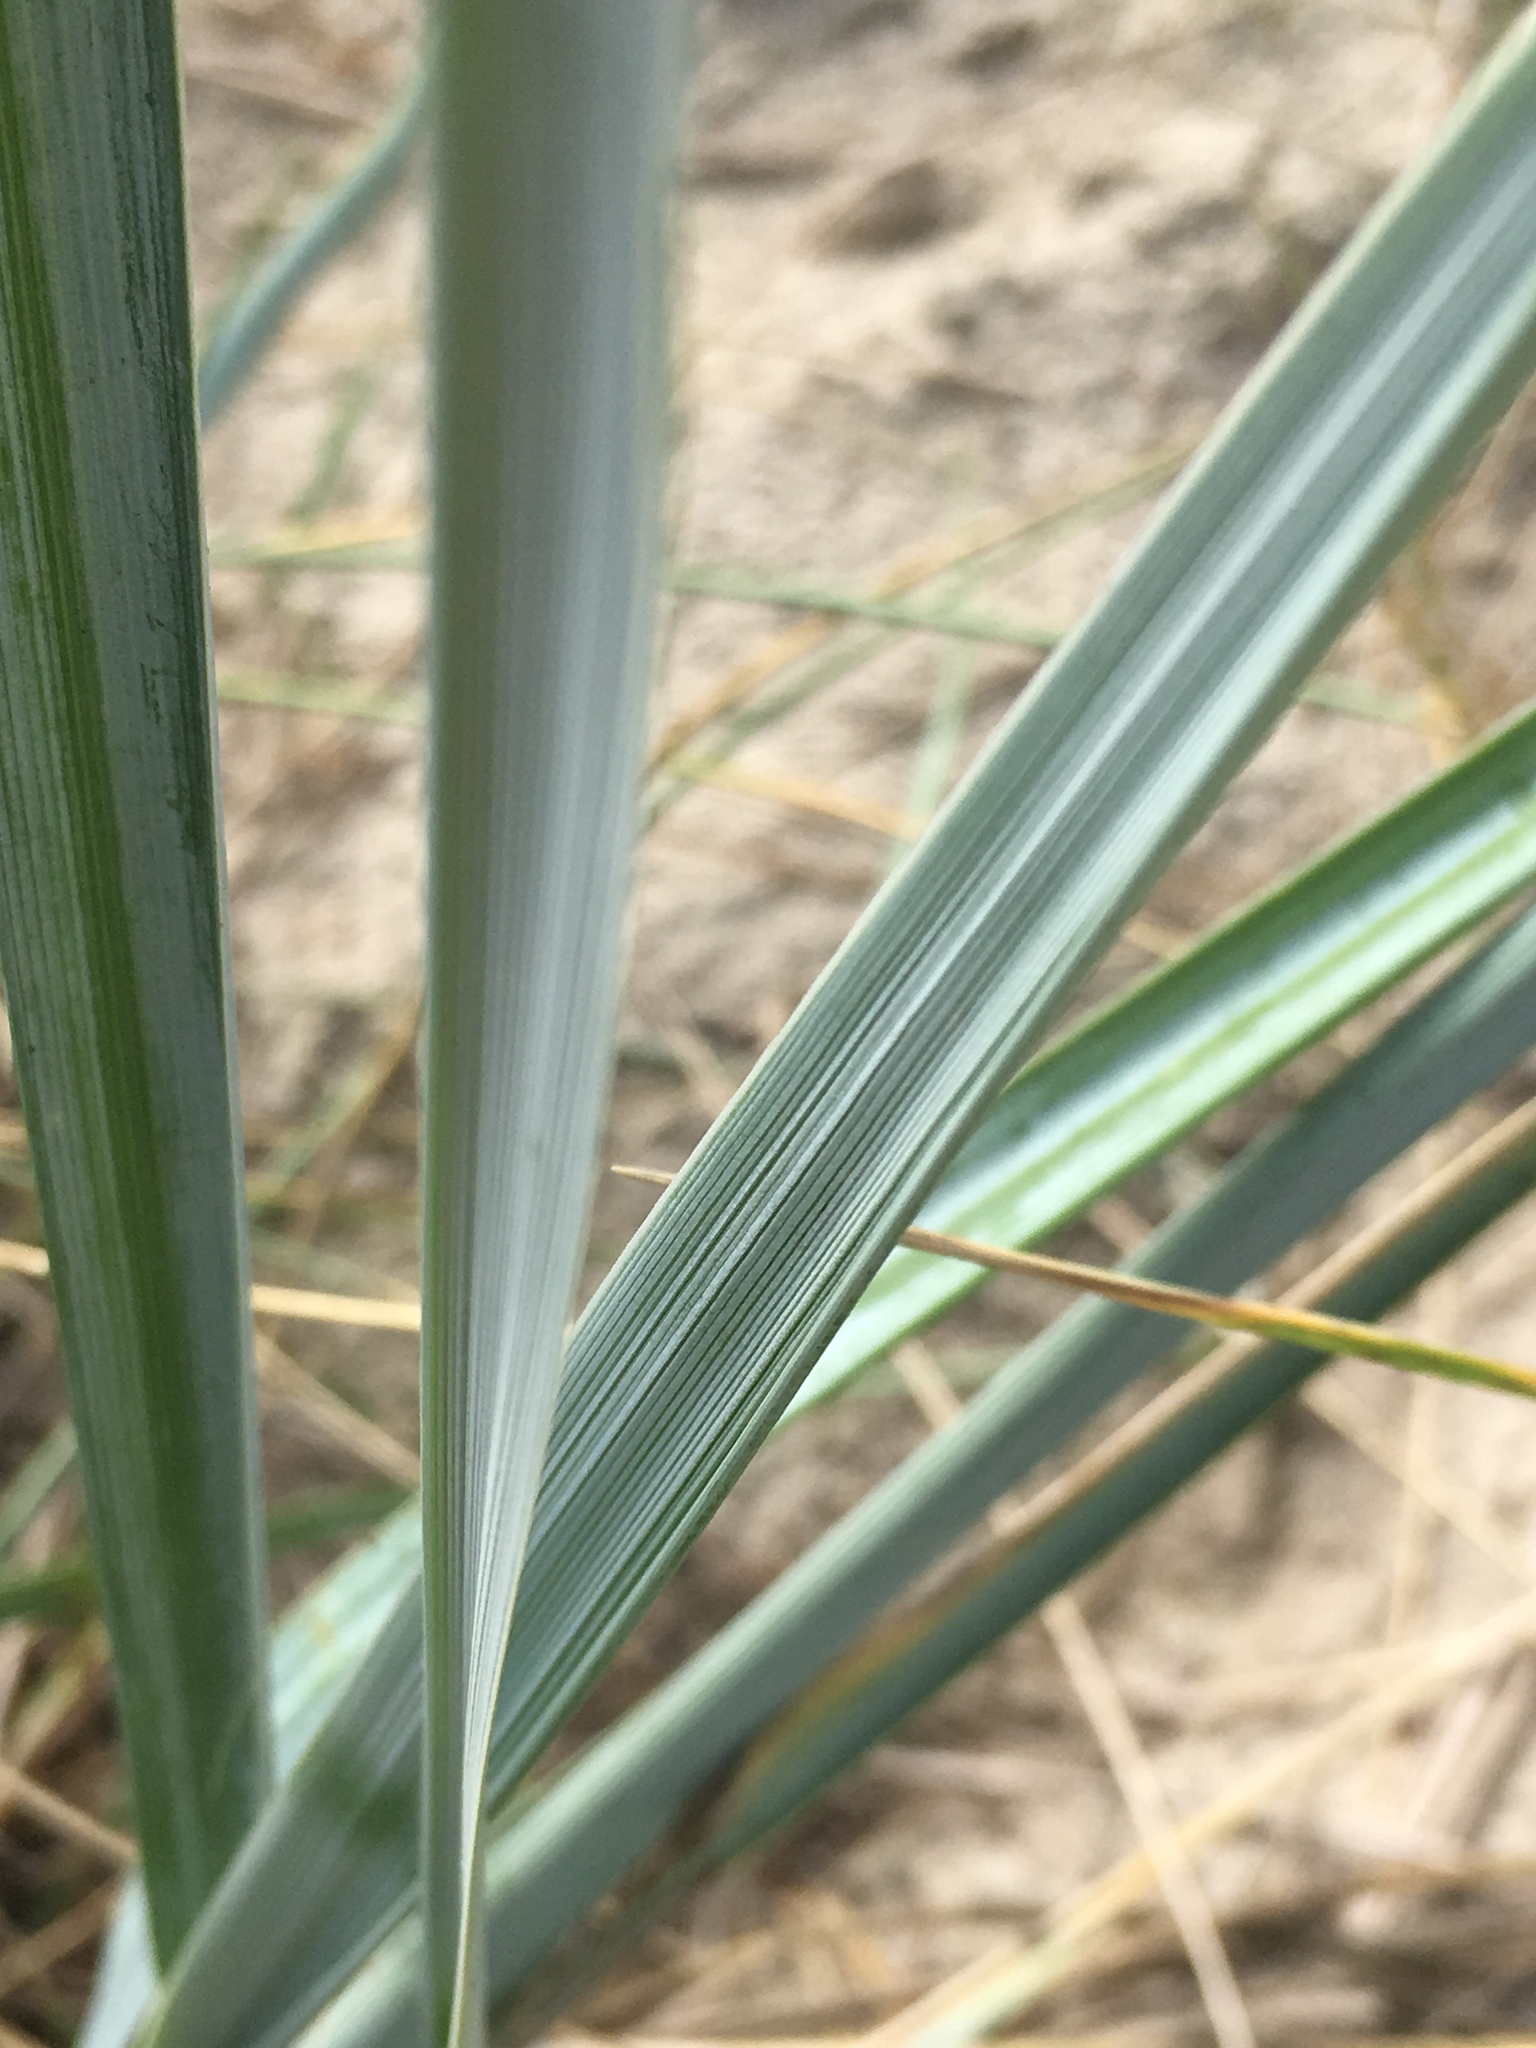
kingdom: Plantae
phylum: Tracheophyta
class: Liliopsida
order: Poales
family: Poaceae
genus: Leymus
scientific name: Leymus arenarius
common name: Lyme-grass
